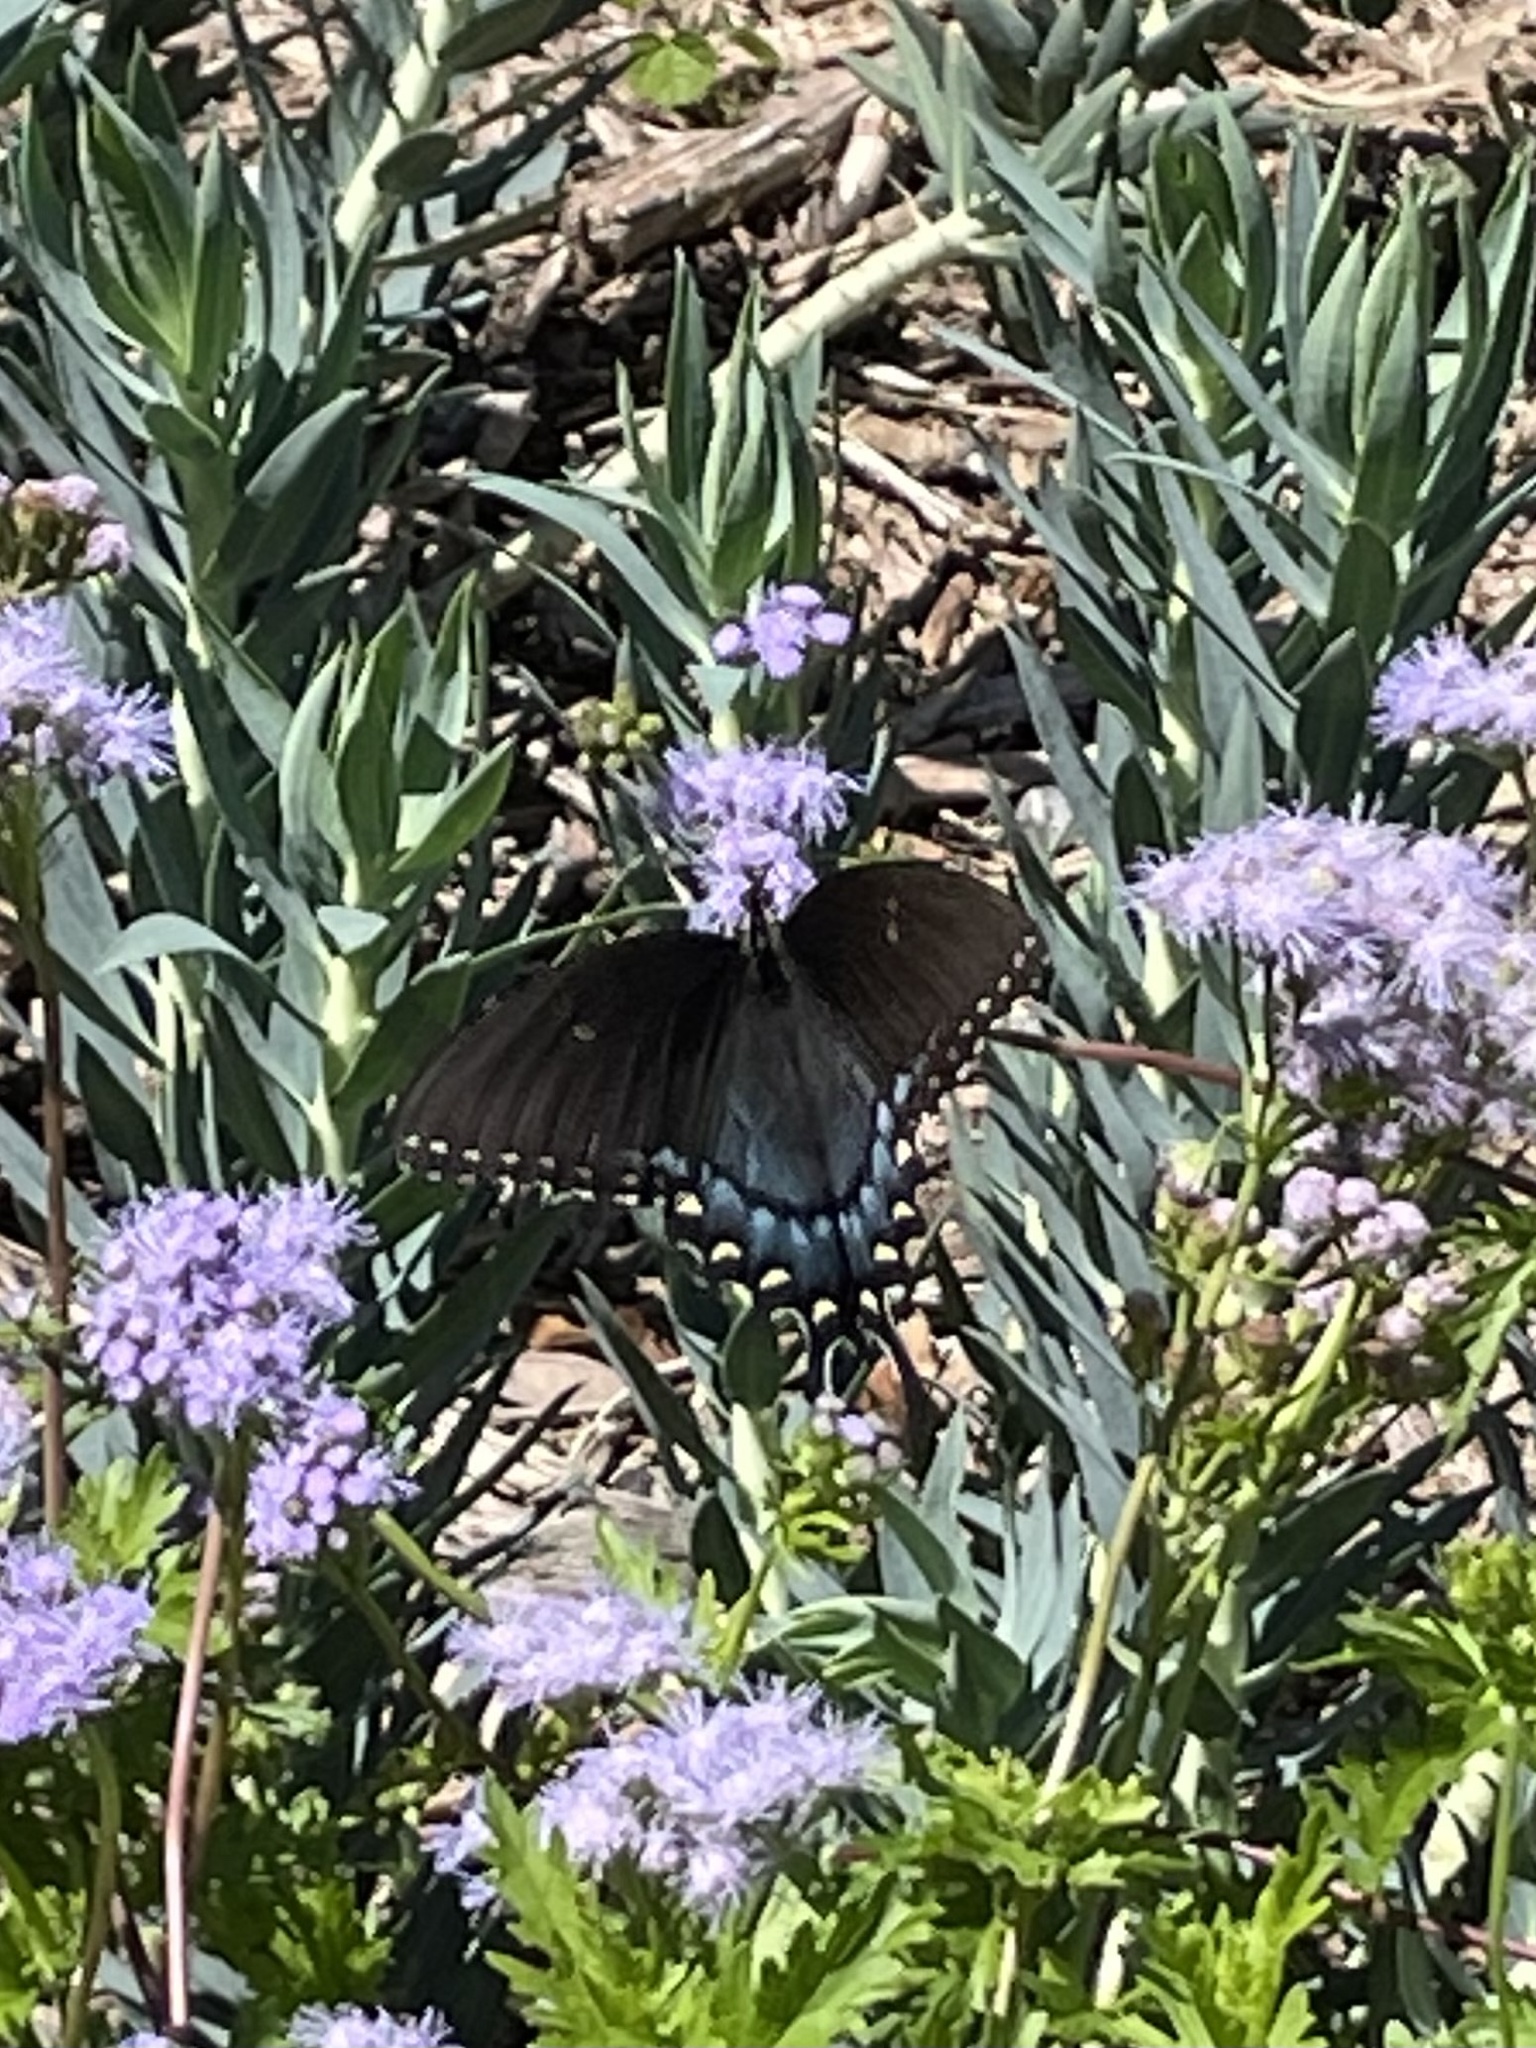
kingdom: Animalia
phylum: Arthropoda
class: Insecta
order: Lepidoptera
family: Papilionidae
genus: Papilio
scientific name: Papilio glaucus
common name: Tiger swallowtail
